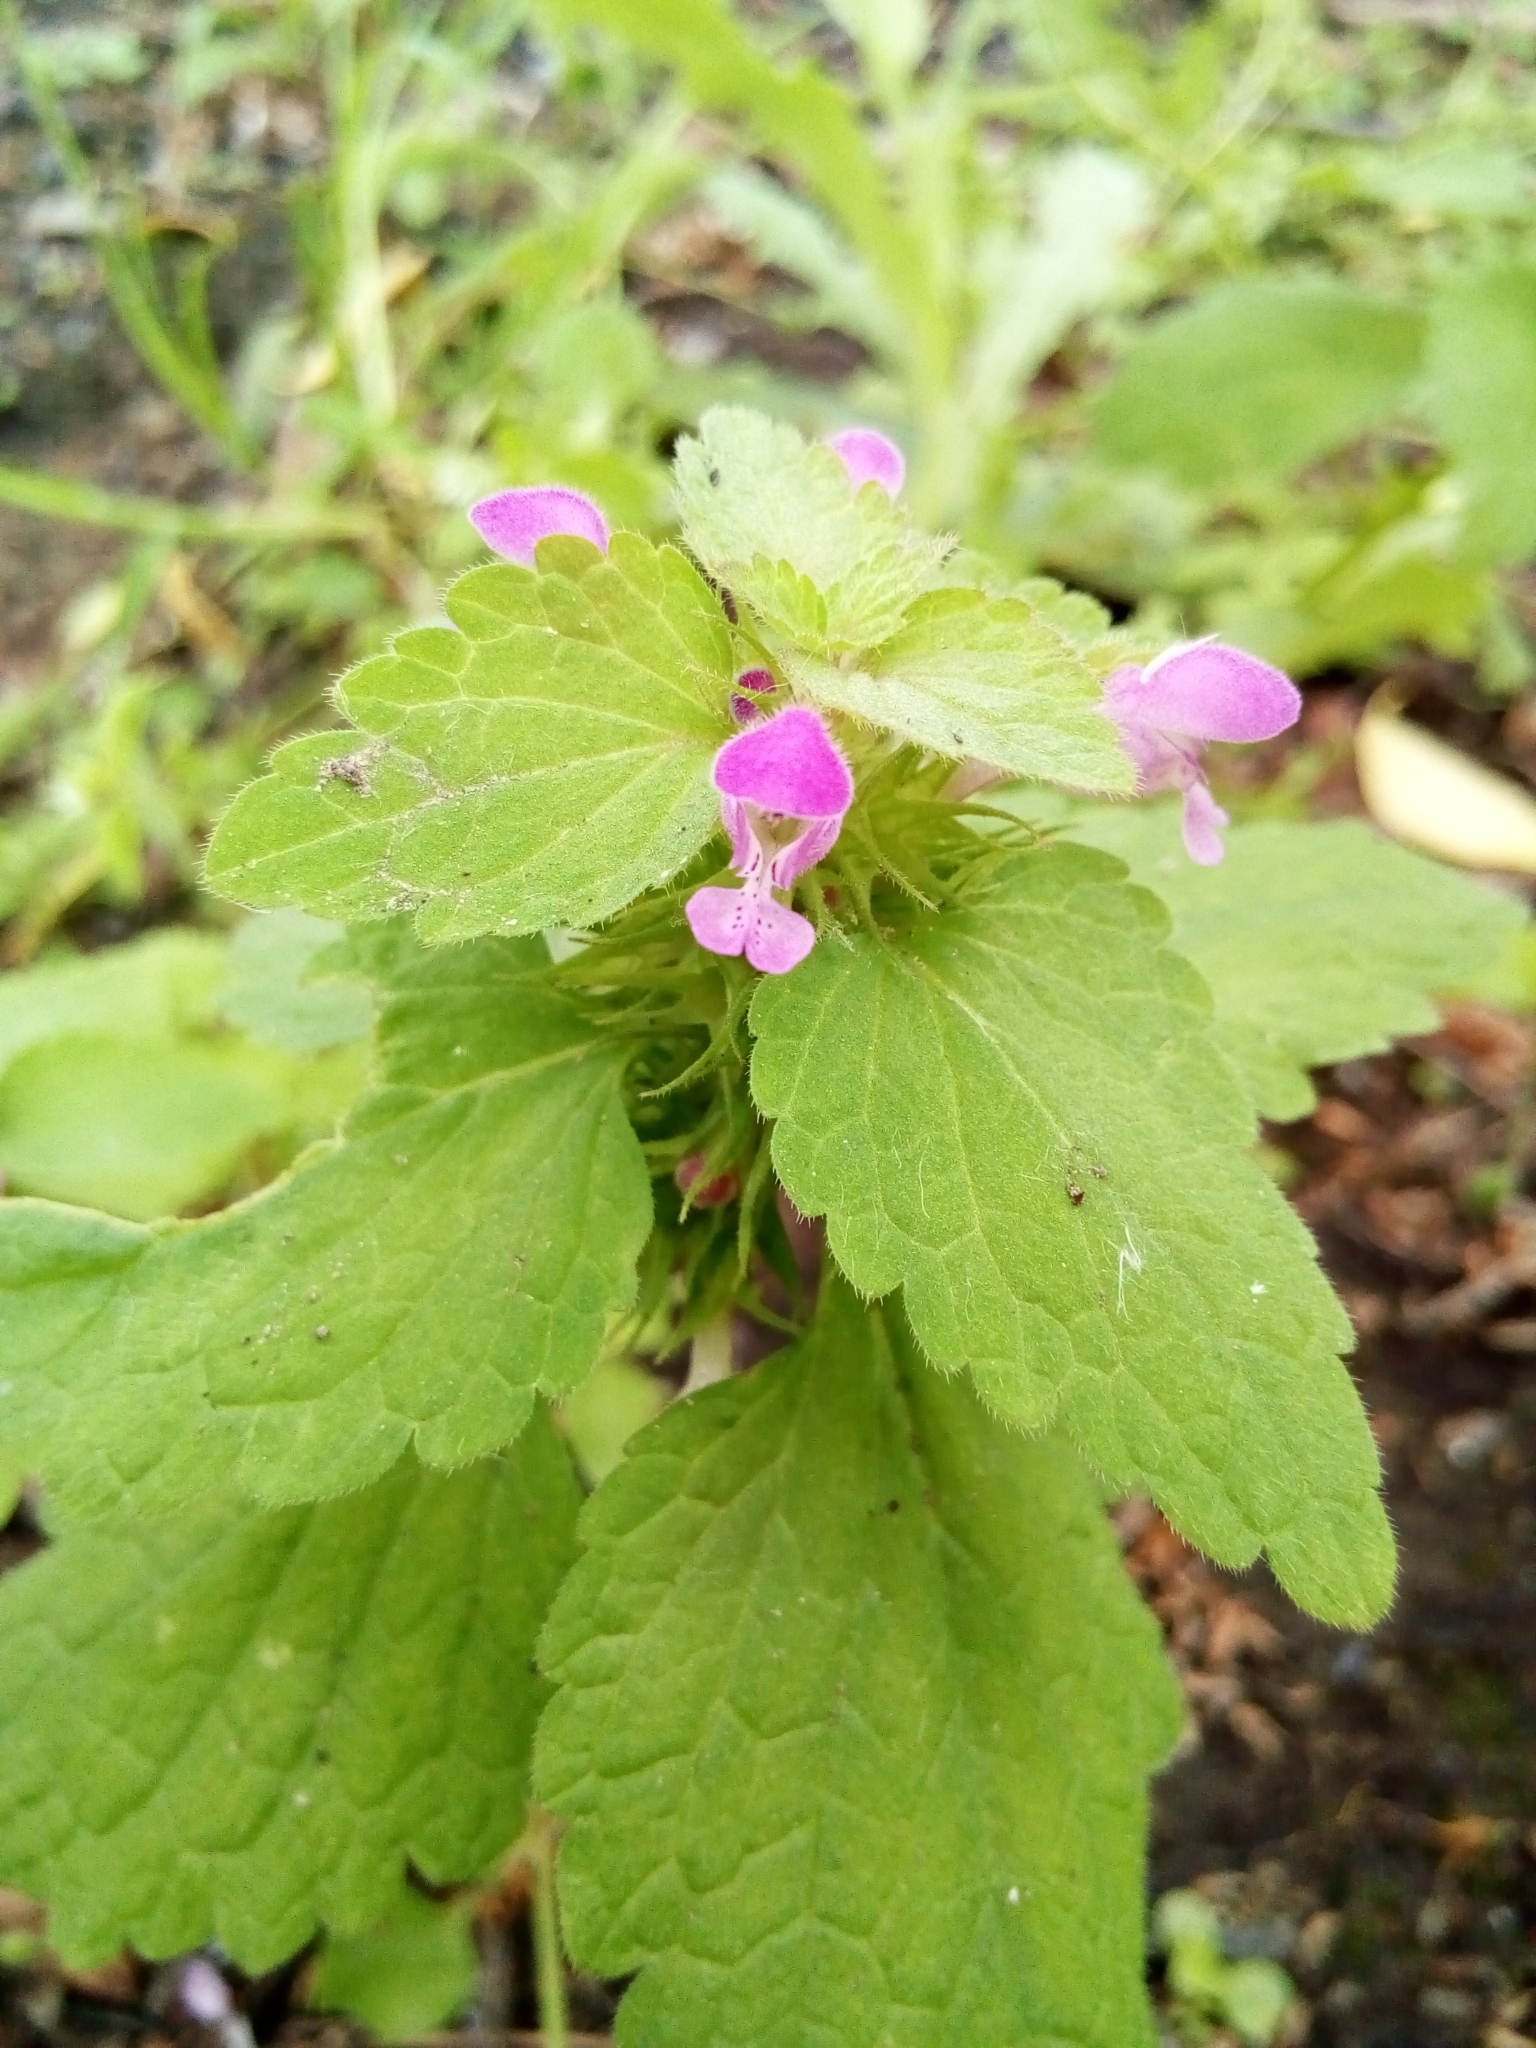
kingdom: Plantae
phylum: Tracheophyta
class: Magnoliopsida
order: Lamiales
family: Lamiaceae
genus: Lamium
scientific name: Lamium purpureum
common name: Red dead-nettle
